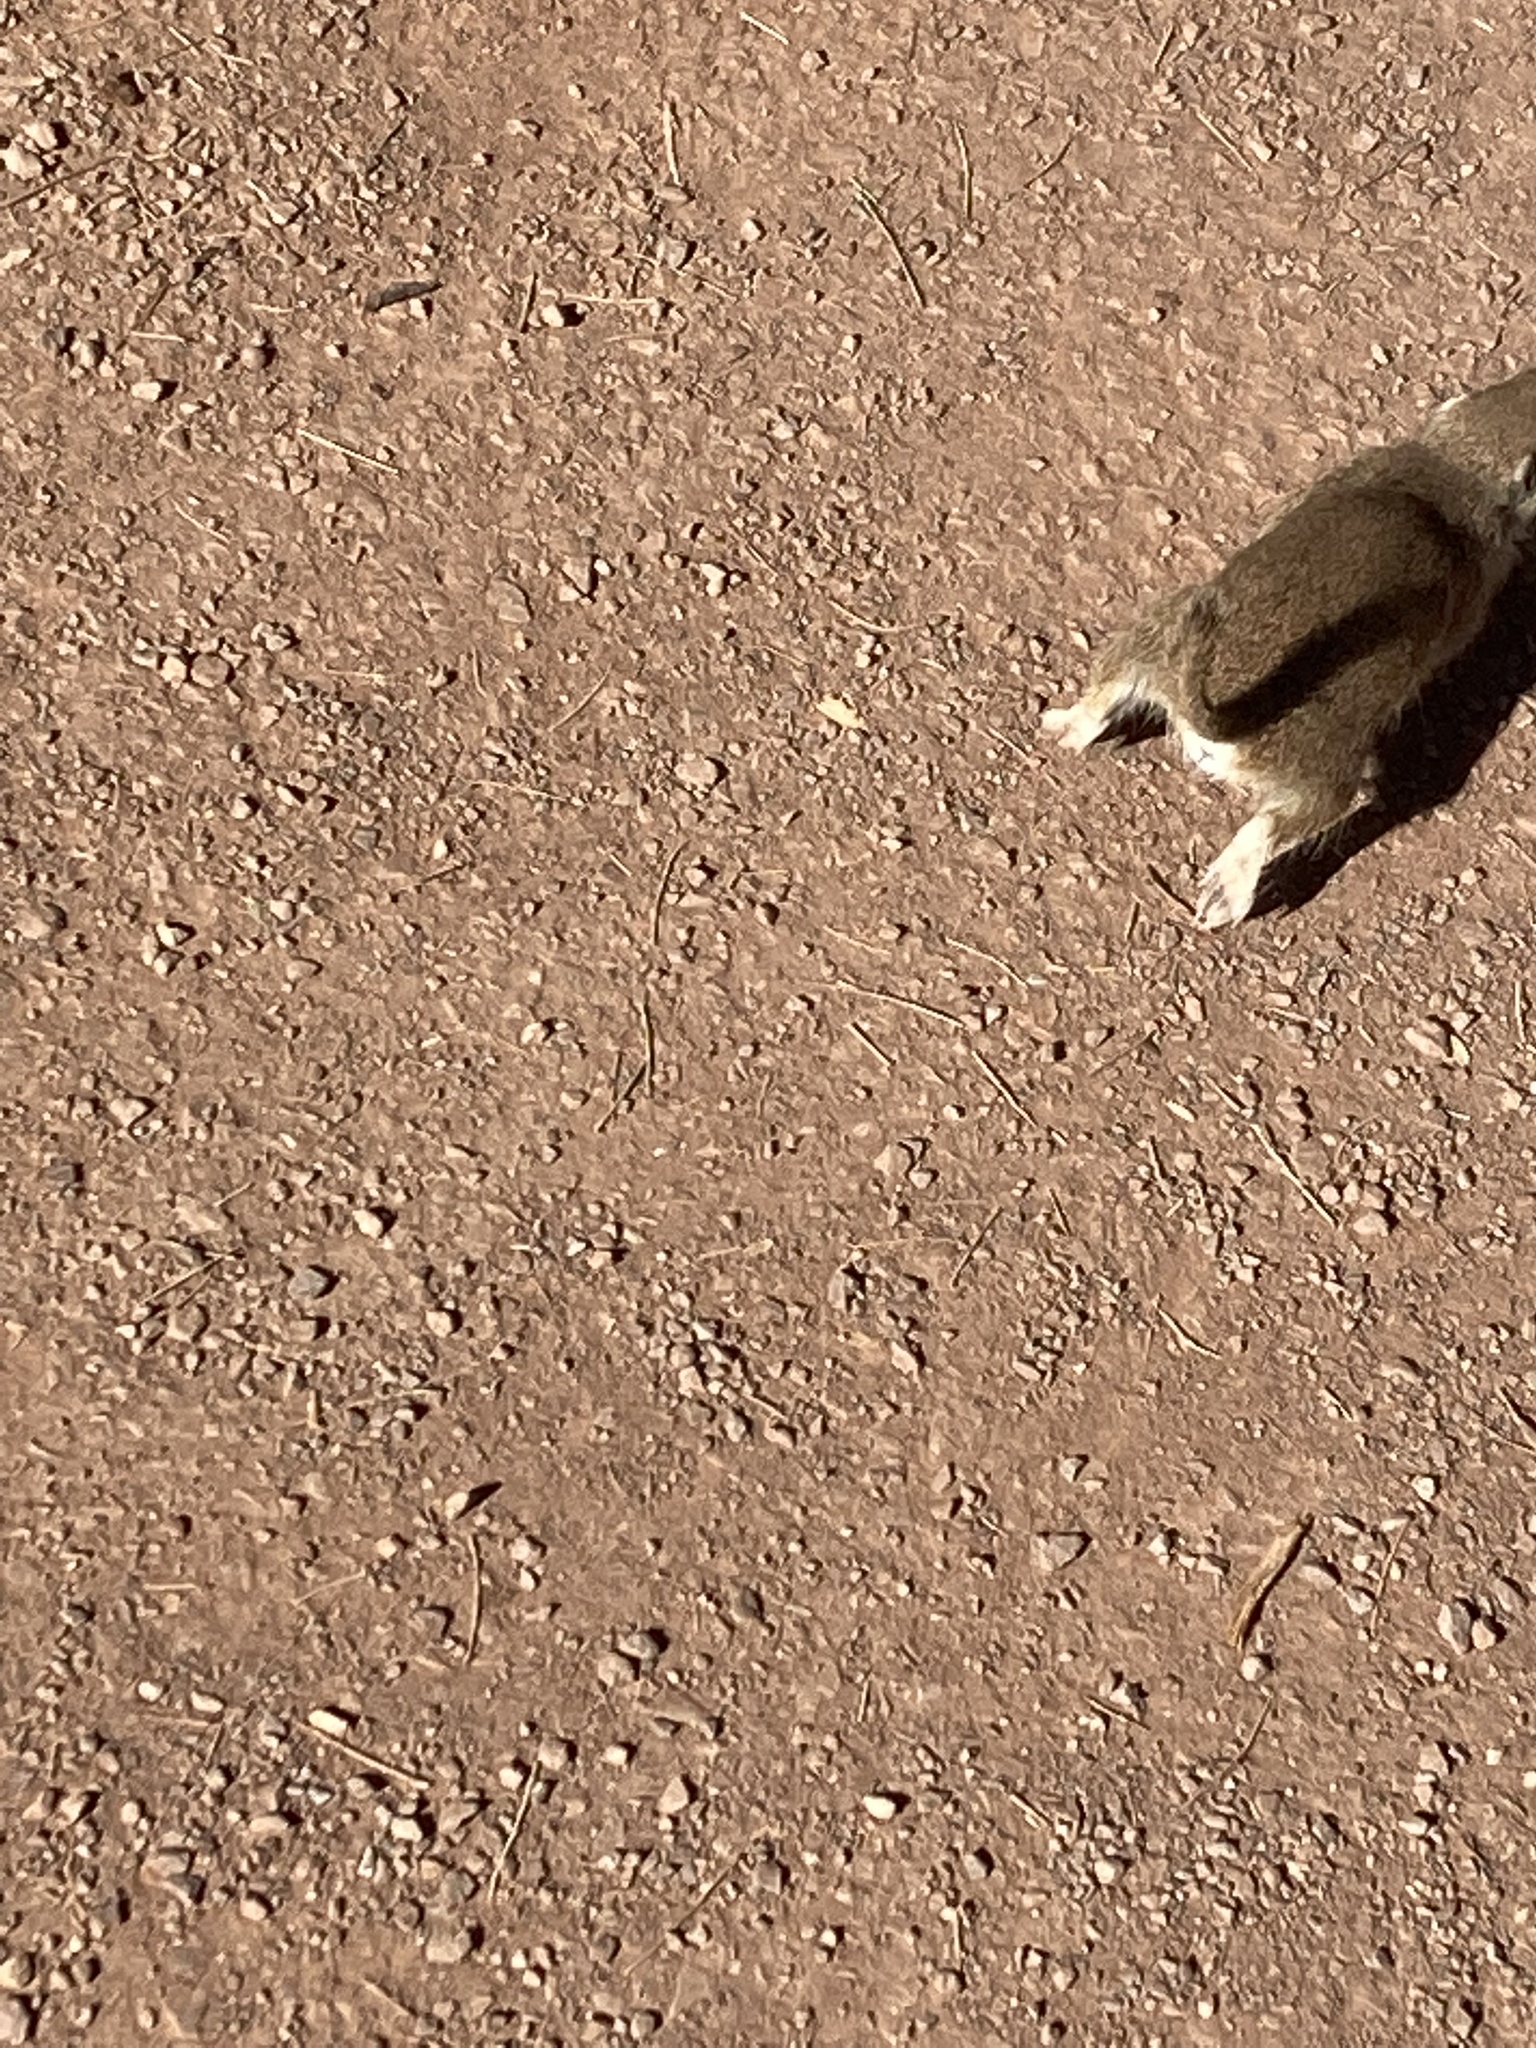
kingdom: Animalia
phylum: Chordata
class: Mammalia
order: Rodentia
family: Sciuridae
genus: Xerospermophilus
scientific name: Xerospermophilus tereticaudus
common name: Round-tailed ground squirrel
